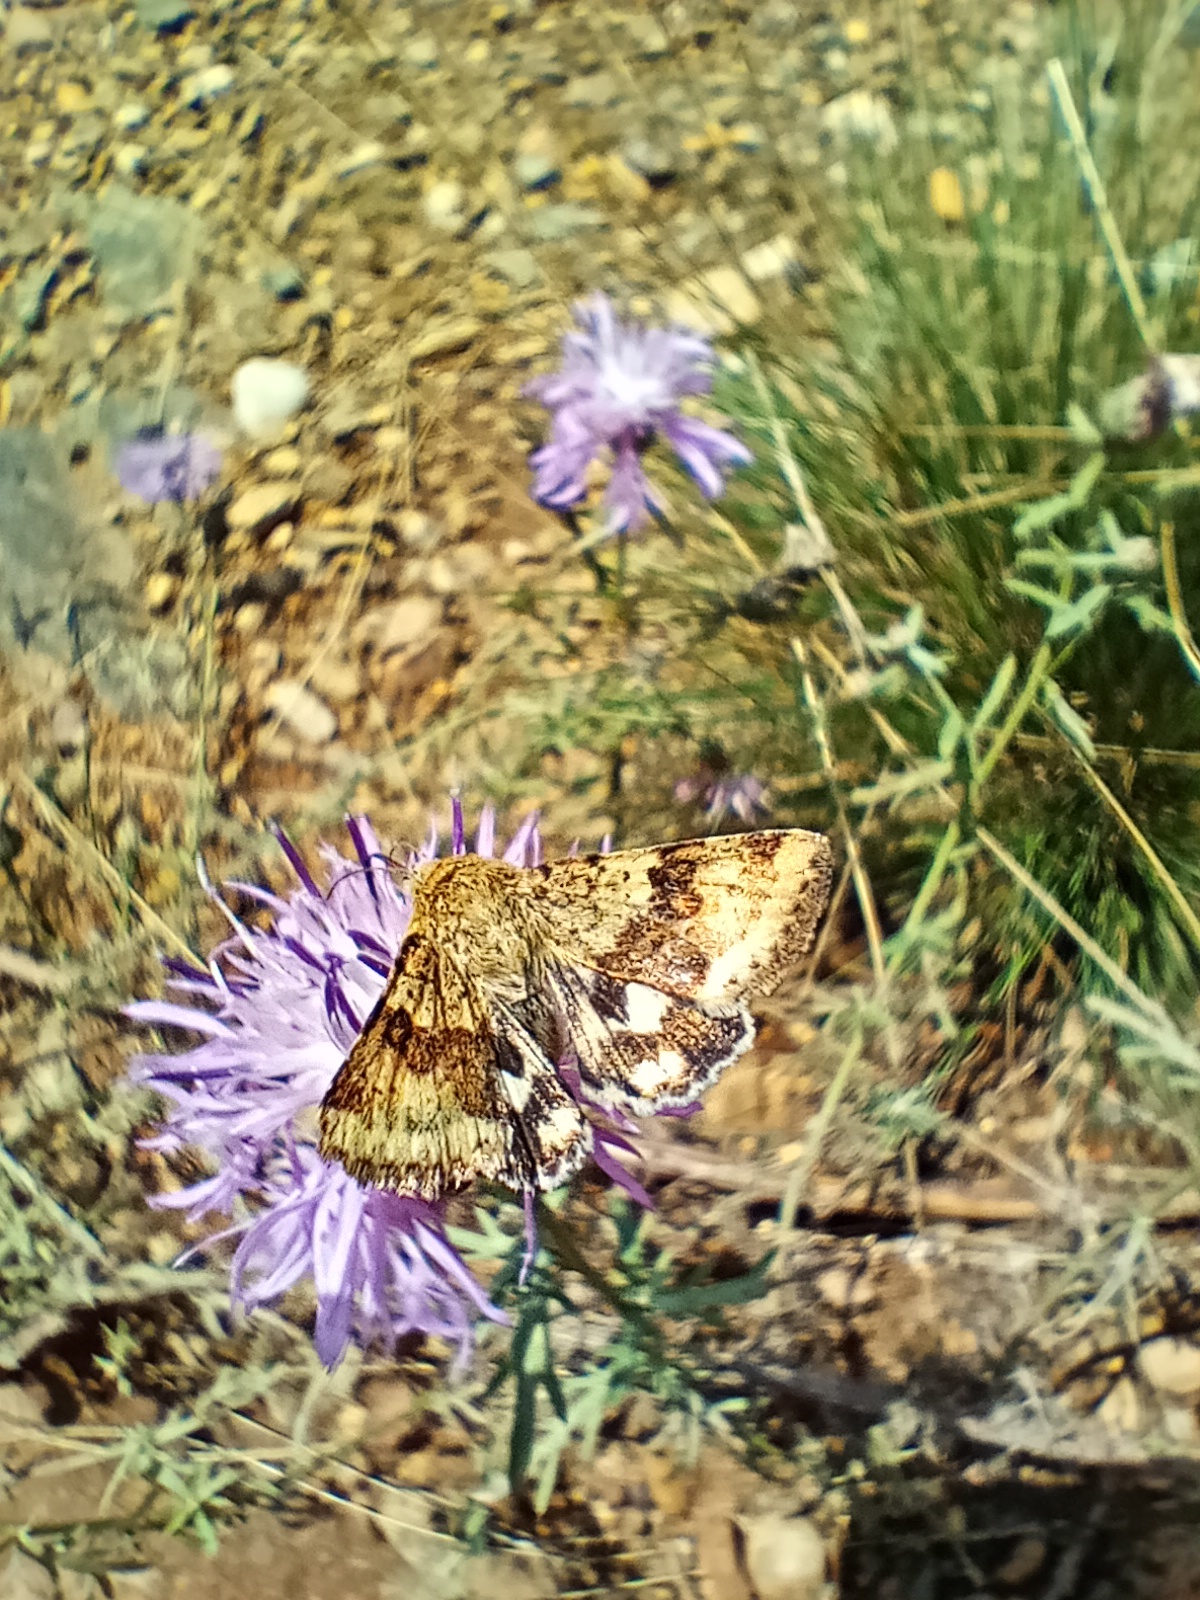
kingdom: Animalia
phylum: Arthropoda
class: Insecta
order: Lepidoptera
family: Noctuidae
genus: Heliothis
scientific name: Heliothis viriplaca
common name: Marbled clover
